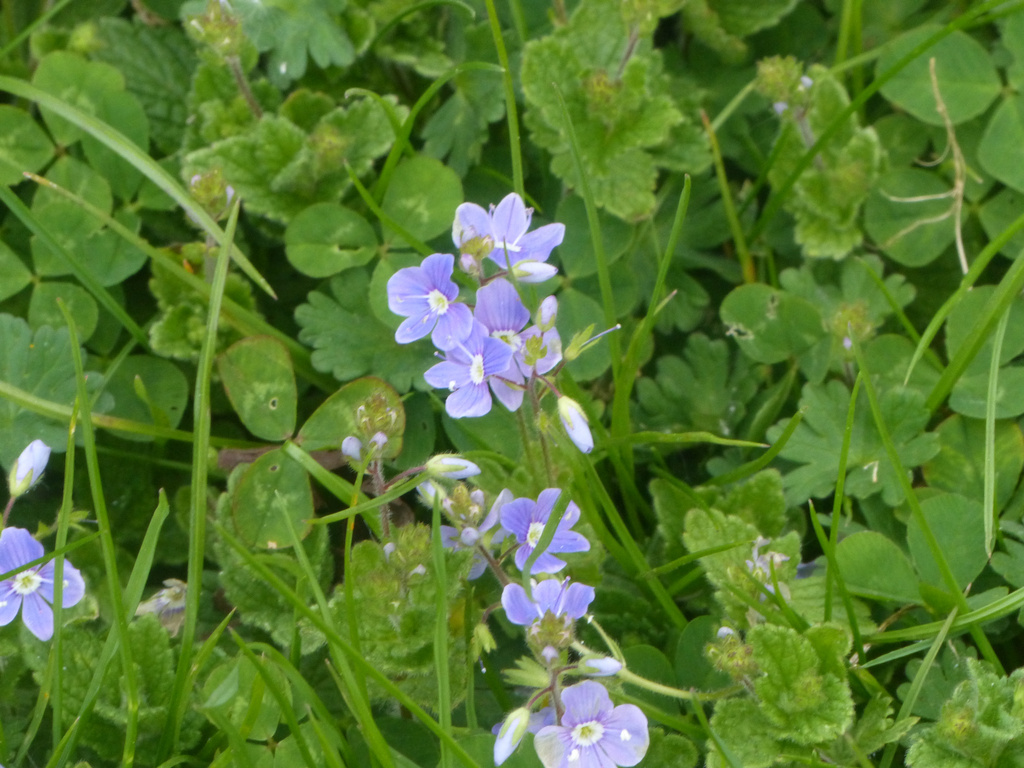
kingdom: Plantae
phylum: Tracheophyta
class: Magnoliopsida
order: Lamiales
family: Plantaginaceae
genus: Veronica
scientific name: Veronica chamaedrys
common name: Germander speedwell
